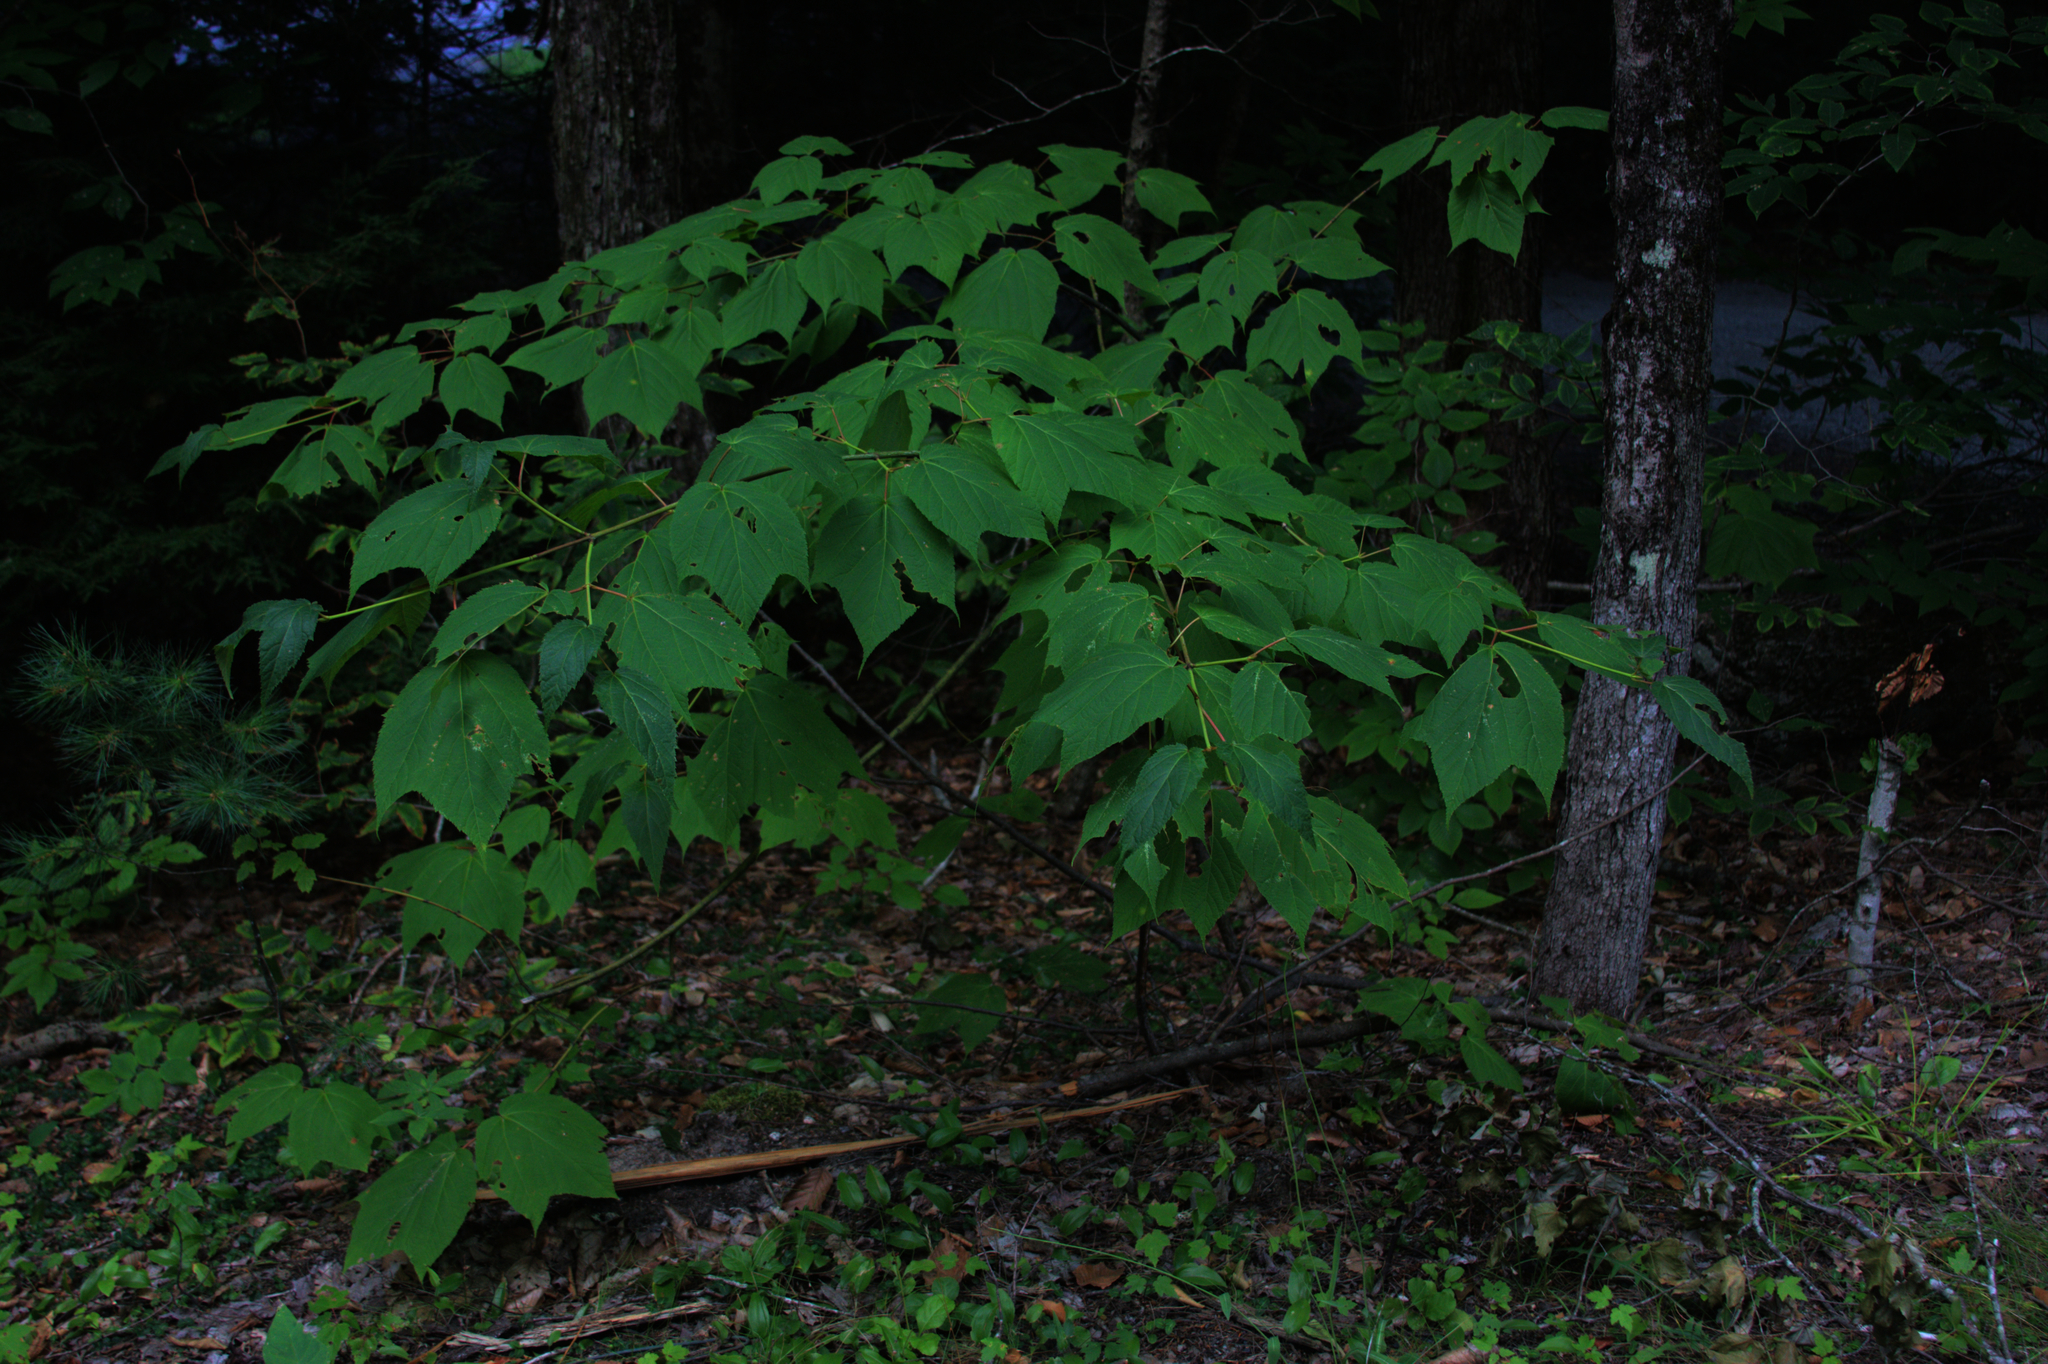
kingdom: Plantae
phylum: Tracheophyta
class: Magnoliopsida
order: Sapindales
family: Sapindaceae
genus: Acer
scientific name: Acer pensylvanicum
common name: Moosewood
